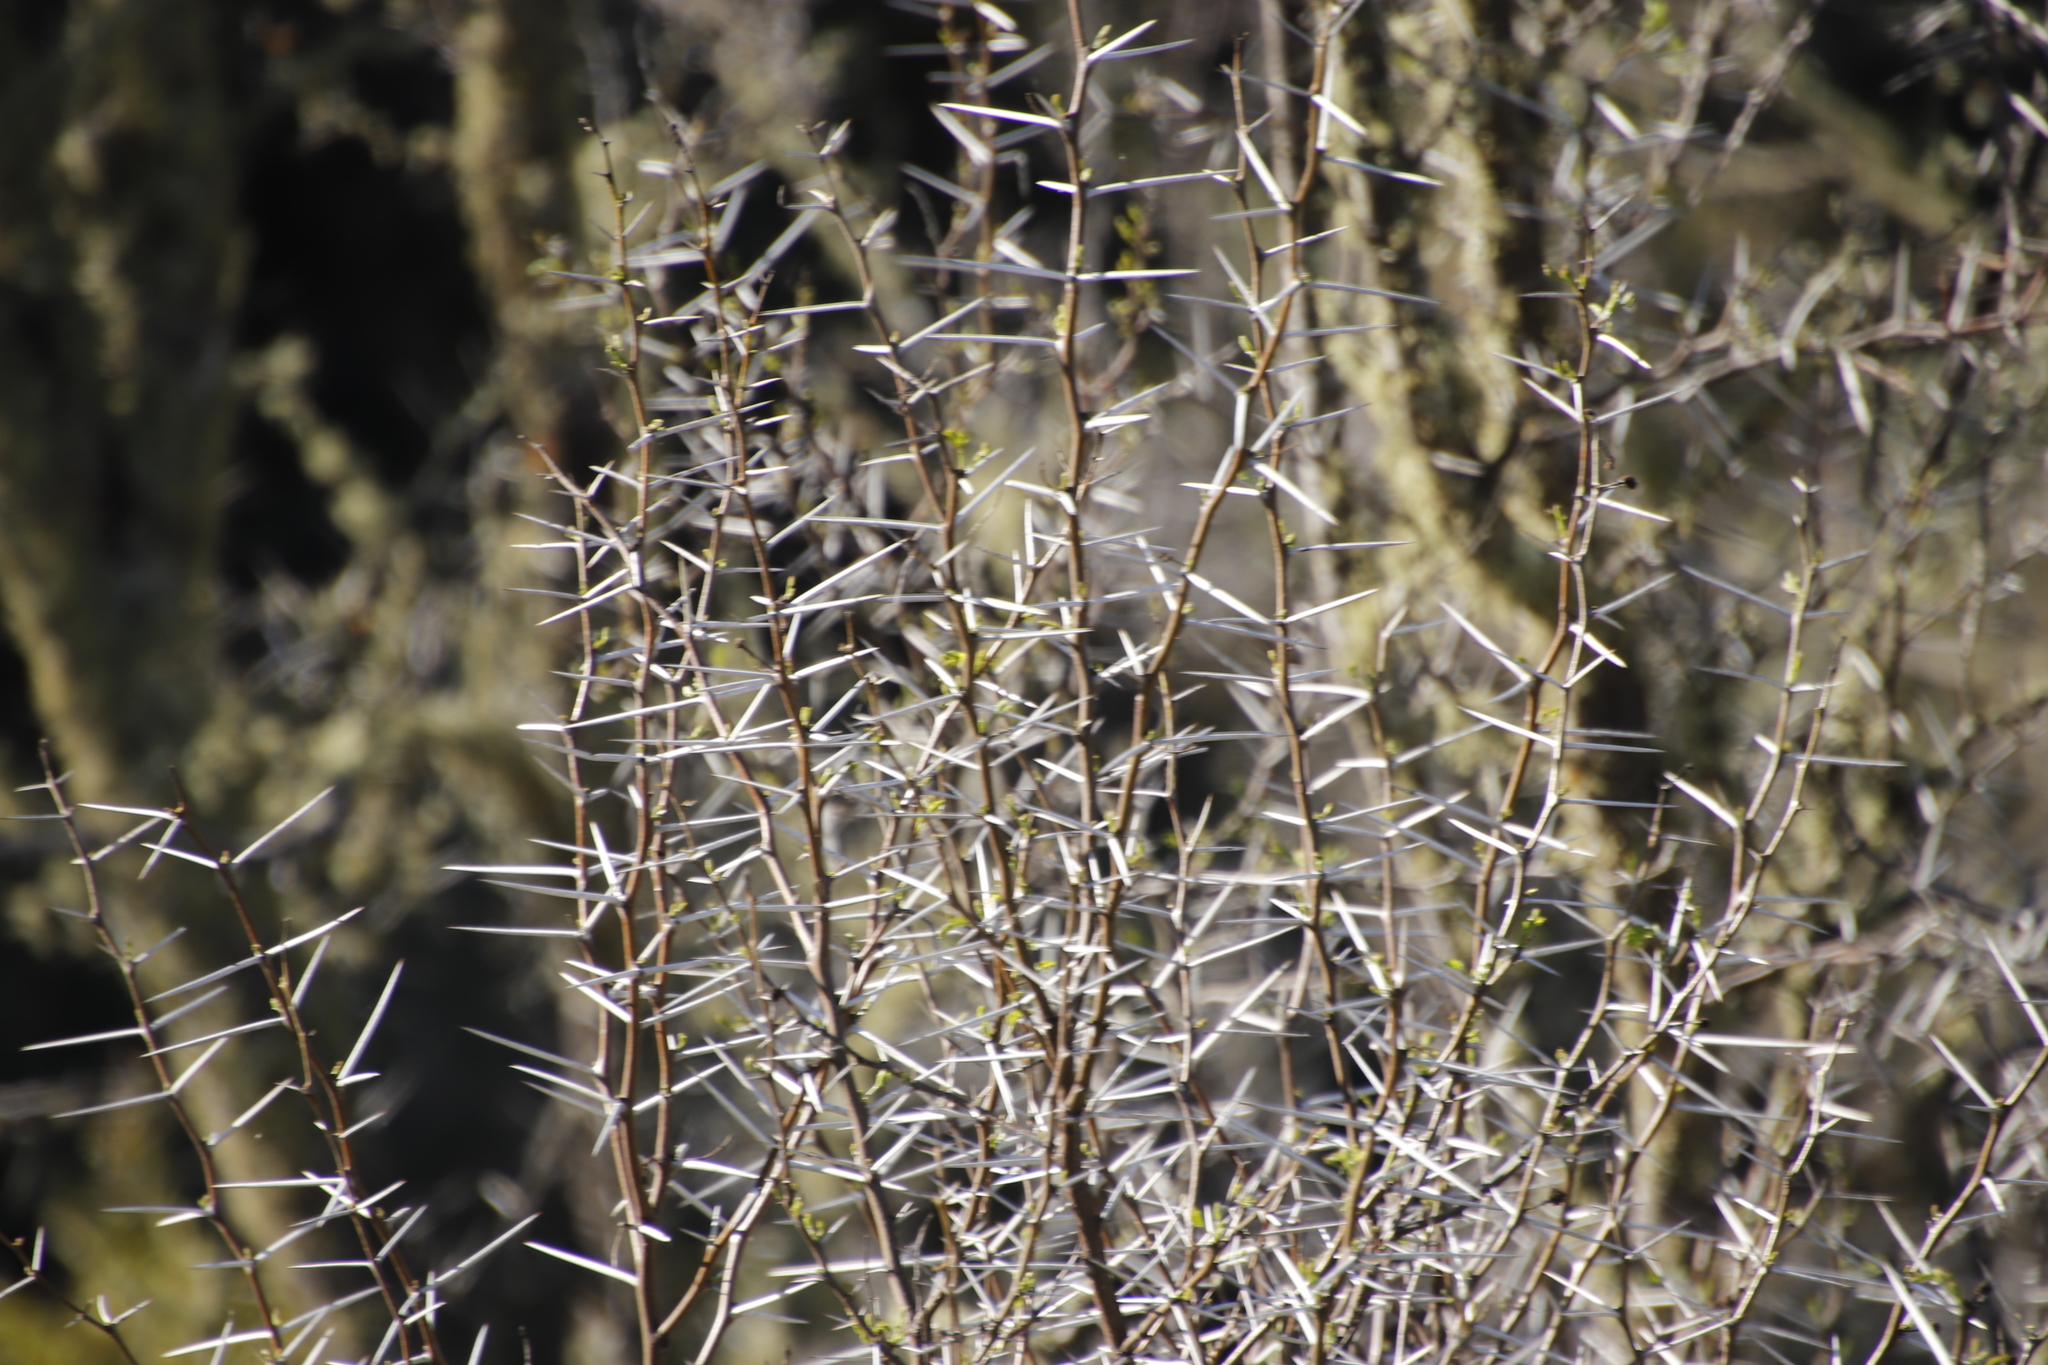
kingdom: Plantae
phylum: Tracheophyta
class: Magnoliopsida
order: Fabales
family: Fabaceae
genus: Vachellia
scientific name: Vachellia karroo
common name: Sweet thorn
